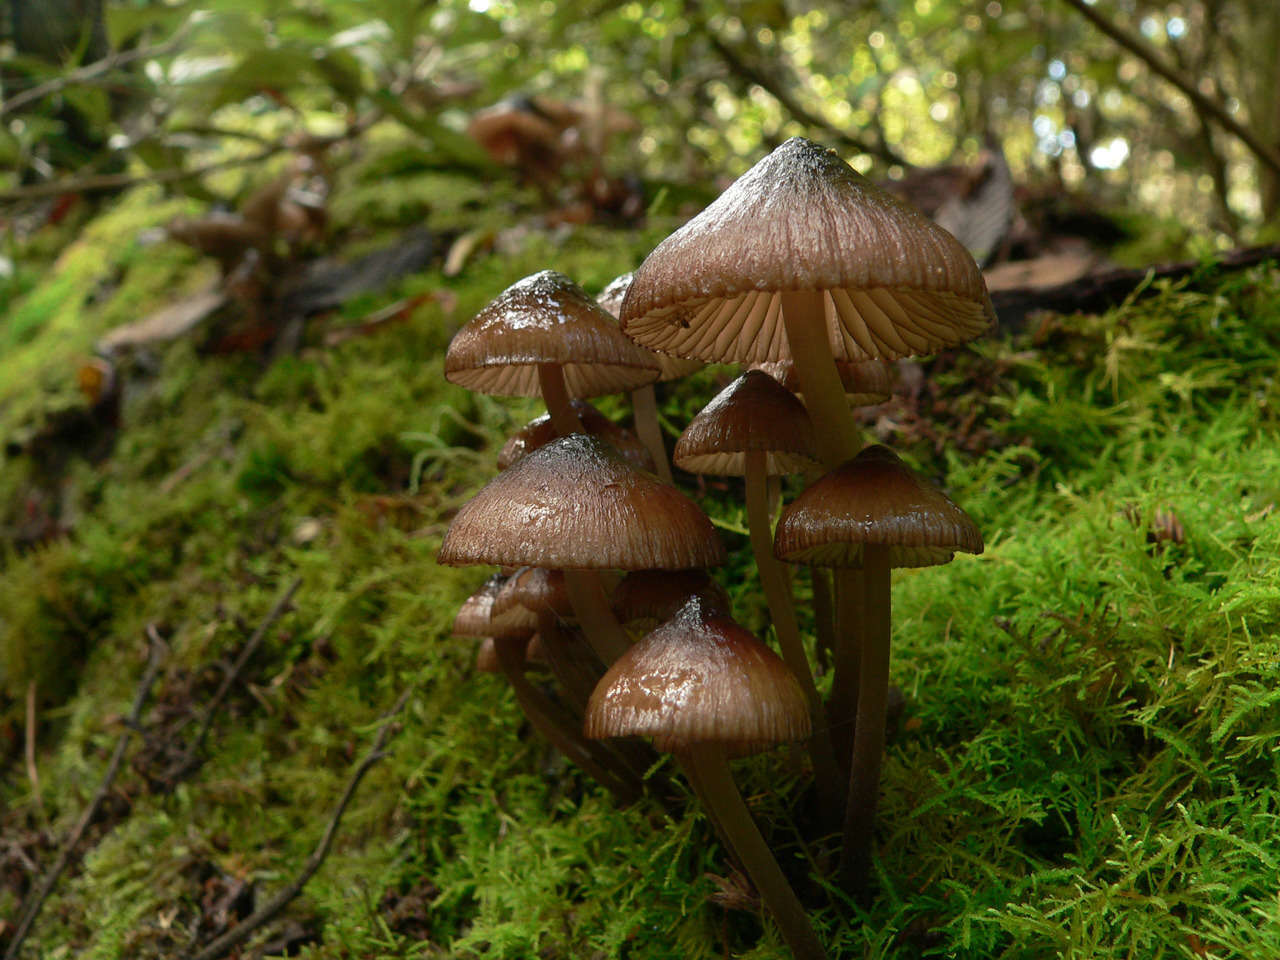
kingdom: Fungi
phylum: Basidiomycota
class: Agaricomycetes
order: Agaricales
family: Mycenaceae
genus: Mycena
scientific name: Mycena mulawaestris
